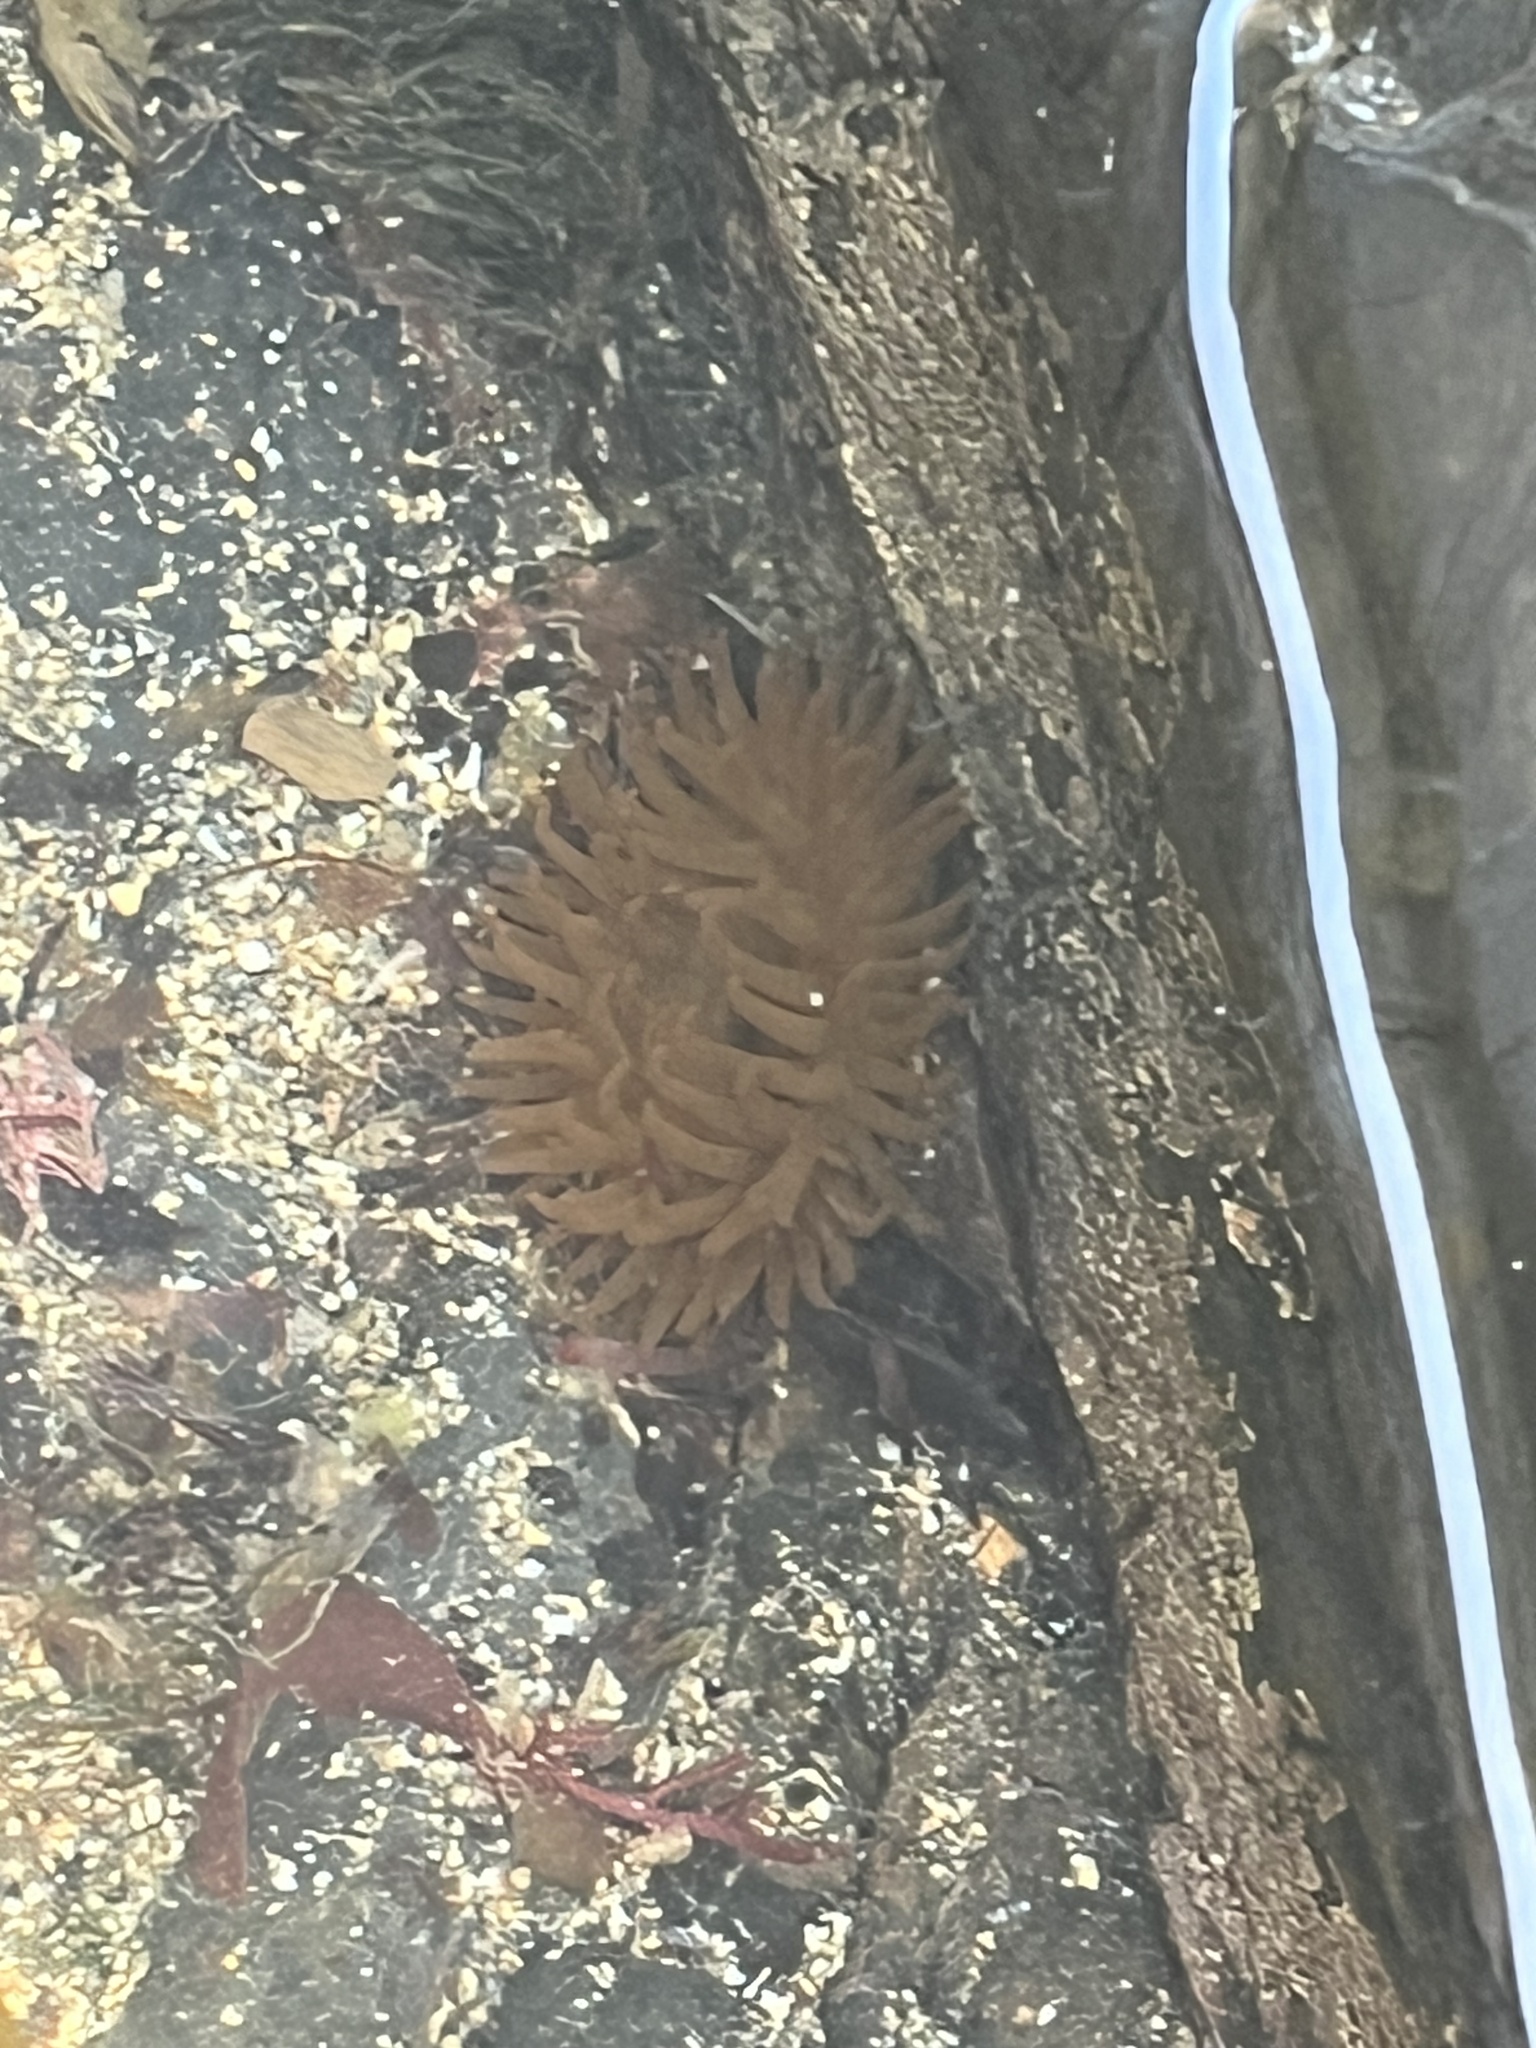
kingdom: Animalia
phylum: Cnidaria
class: Anthozoa
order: Actiniaria
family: Actiniidae
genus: Actinia
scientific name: Actinia equina
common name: Beadlet anemone
